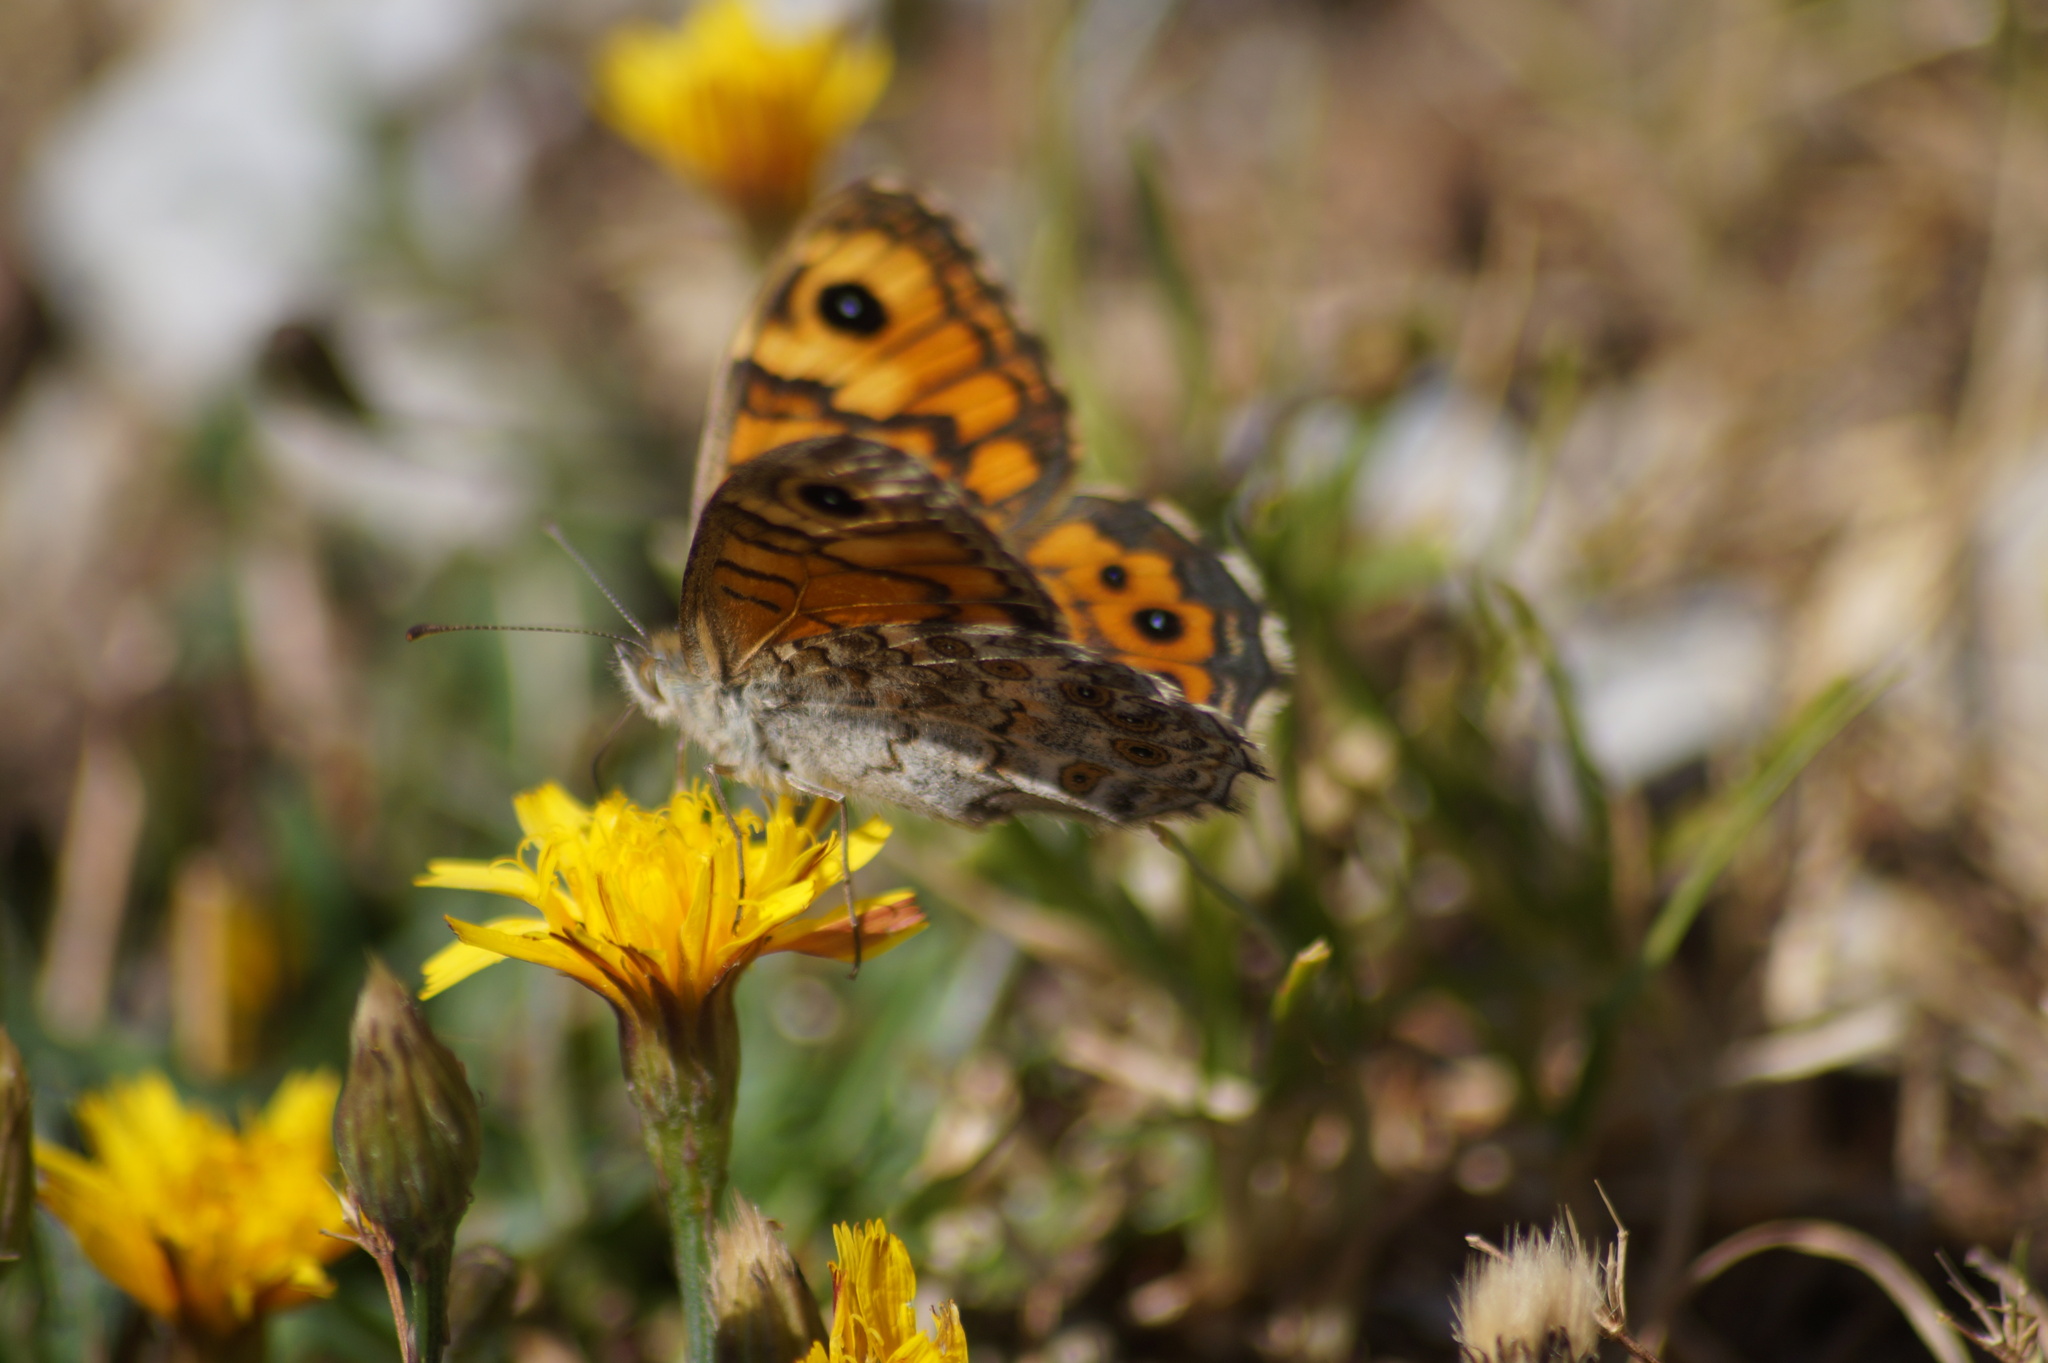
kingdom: Animalia
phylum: Arthropoda
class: Insecta
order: Lepidoptera
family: Nymphalidae
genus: Pararge
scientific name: Pararge Lasiommata megera
